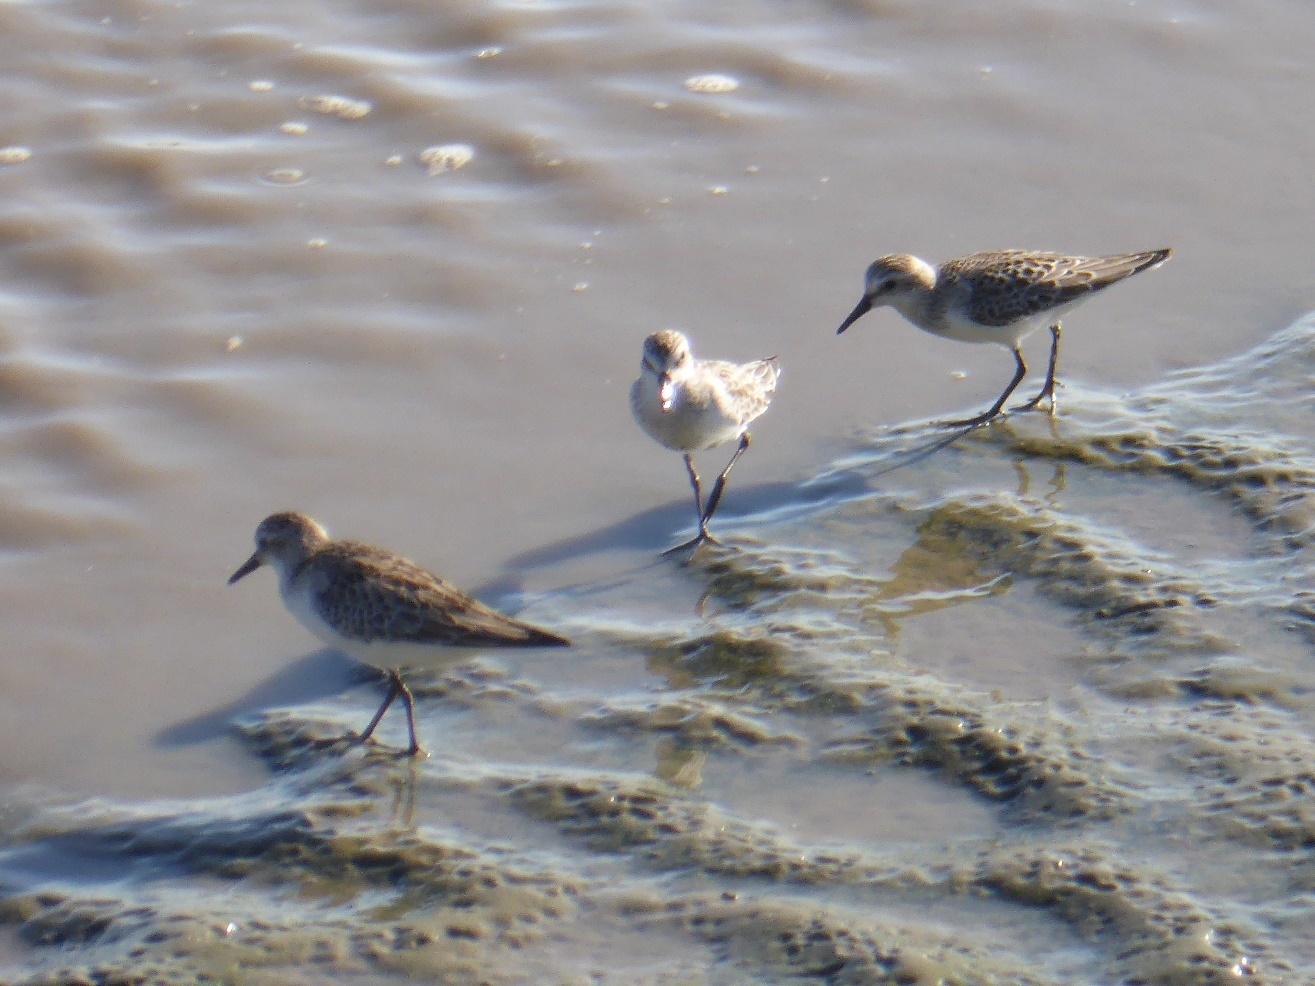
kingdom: Animalia
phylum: Chordata
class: Aves
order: Charadriiformes
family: Scolopacidae
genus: Calidris
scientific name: Calidris pusilla
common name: Semipalmated sandpiper
